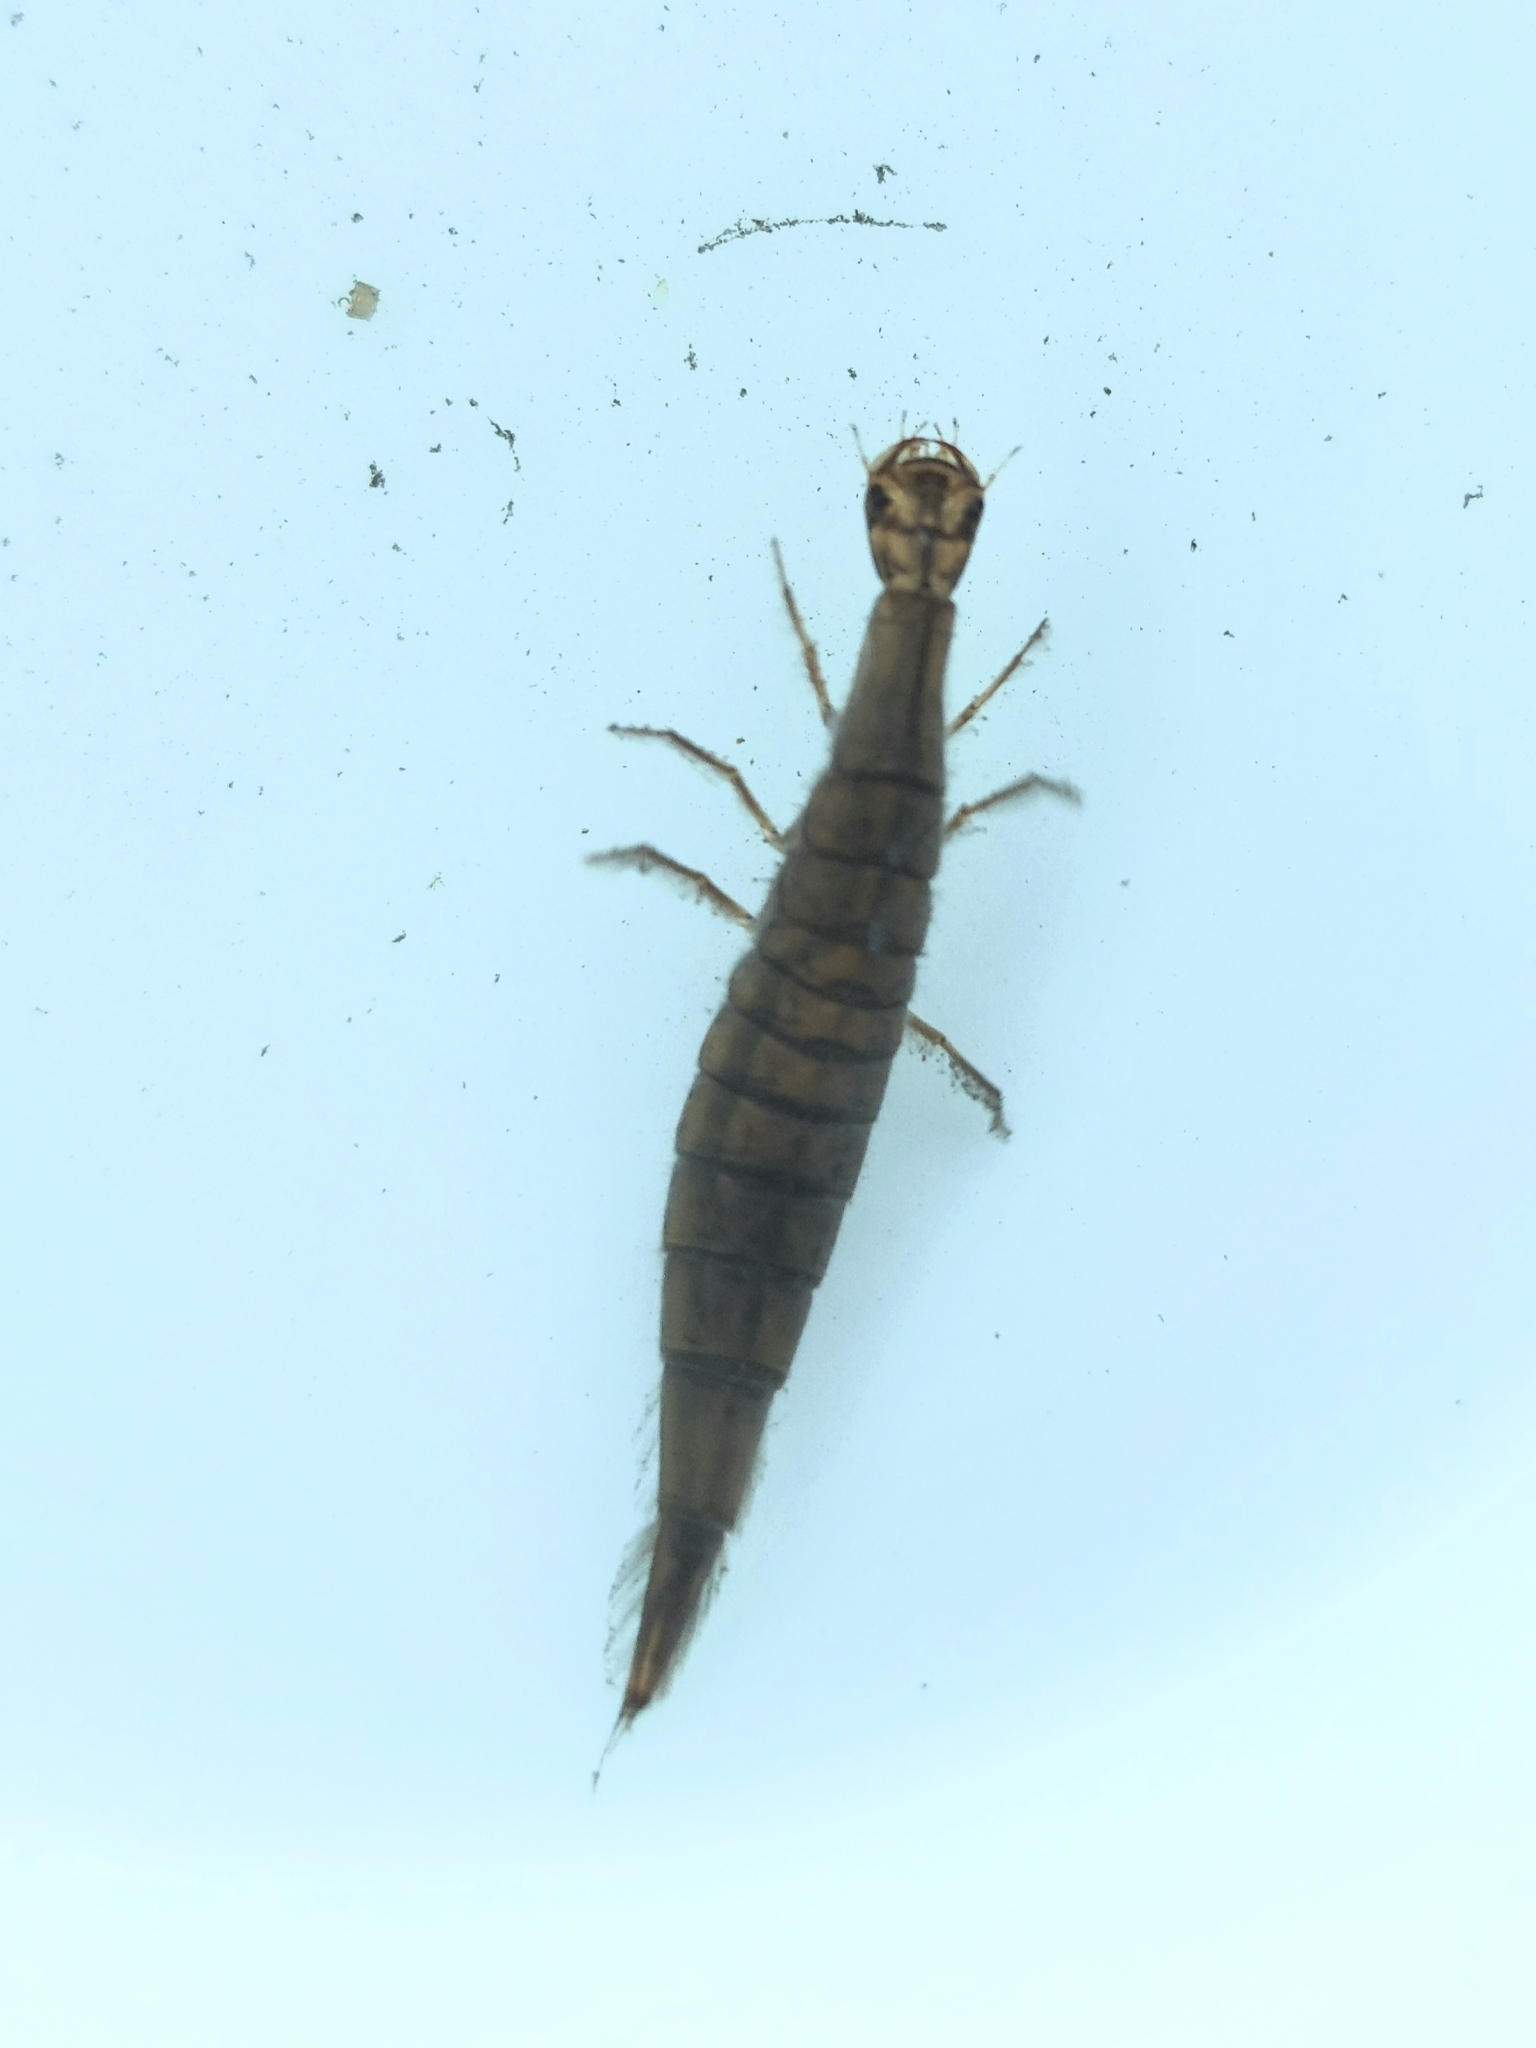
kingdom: Animalia
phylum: Arthropoda
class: Insecta
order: Coleoptera
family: Dytiscidae
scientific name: Dytiscidae
